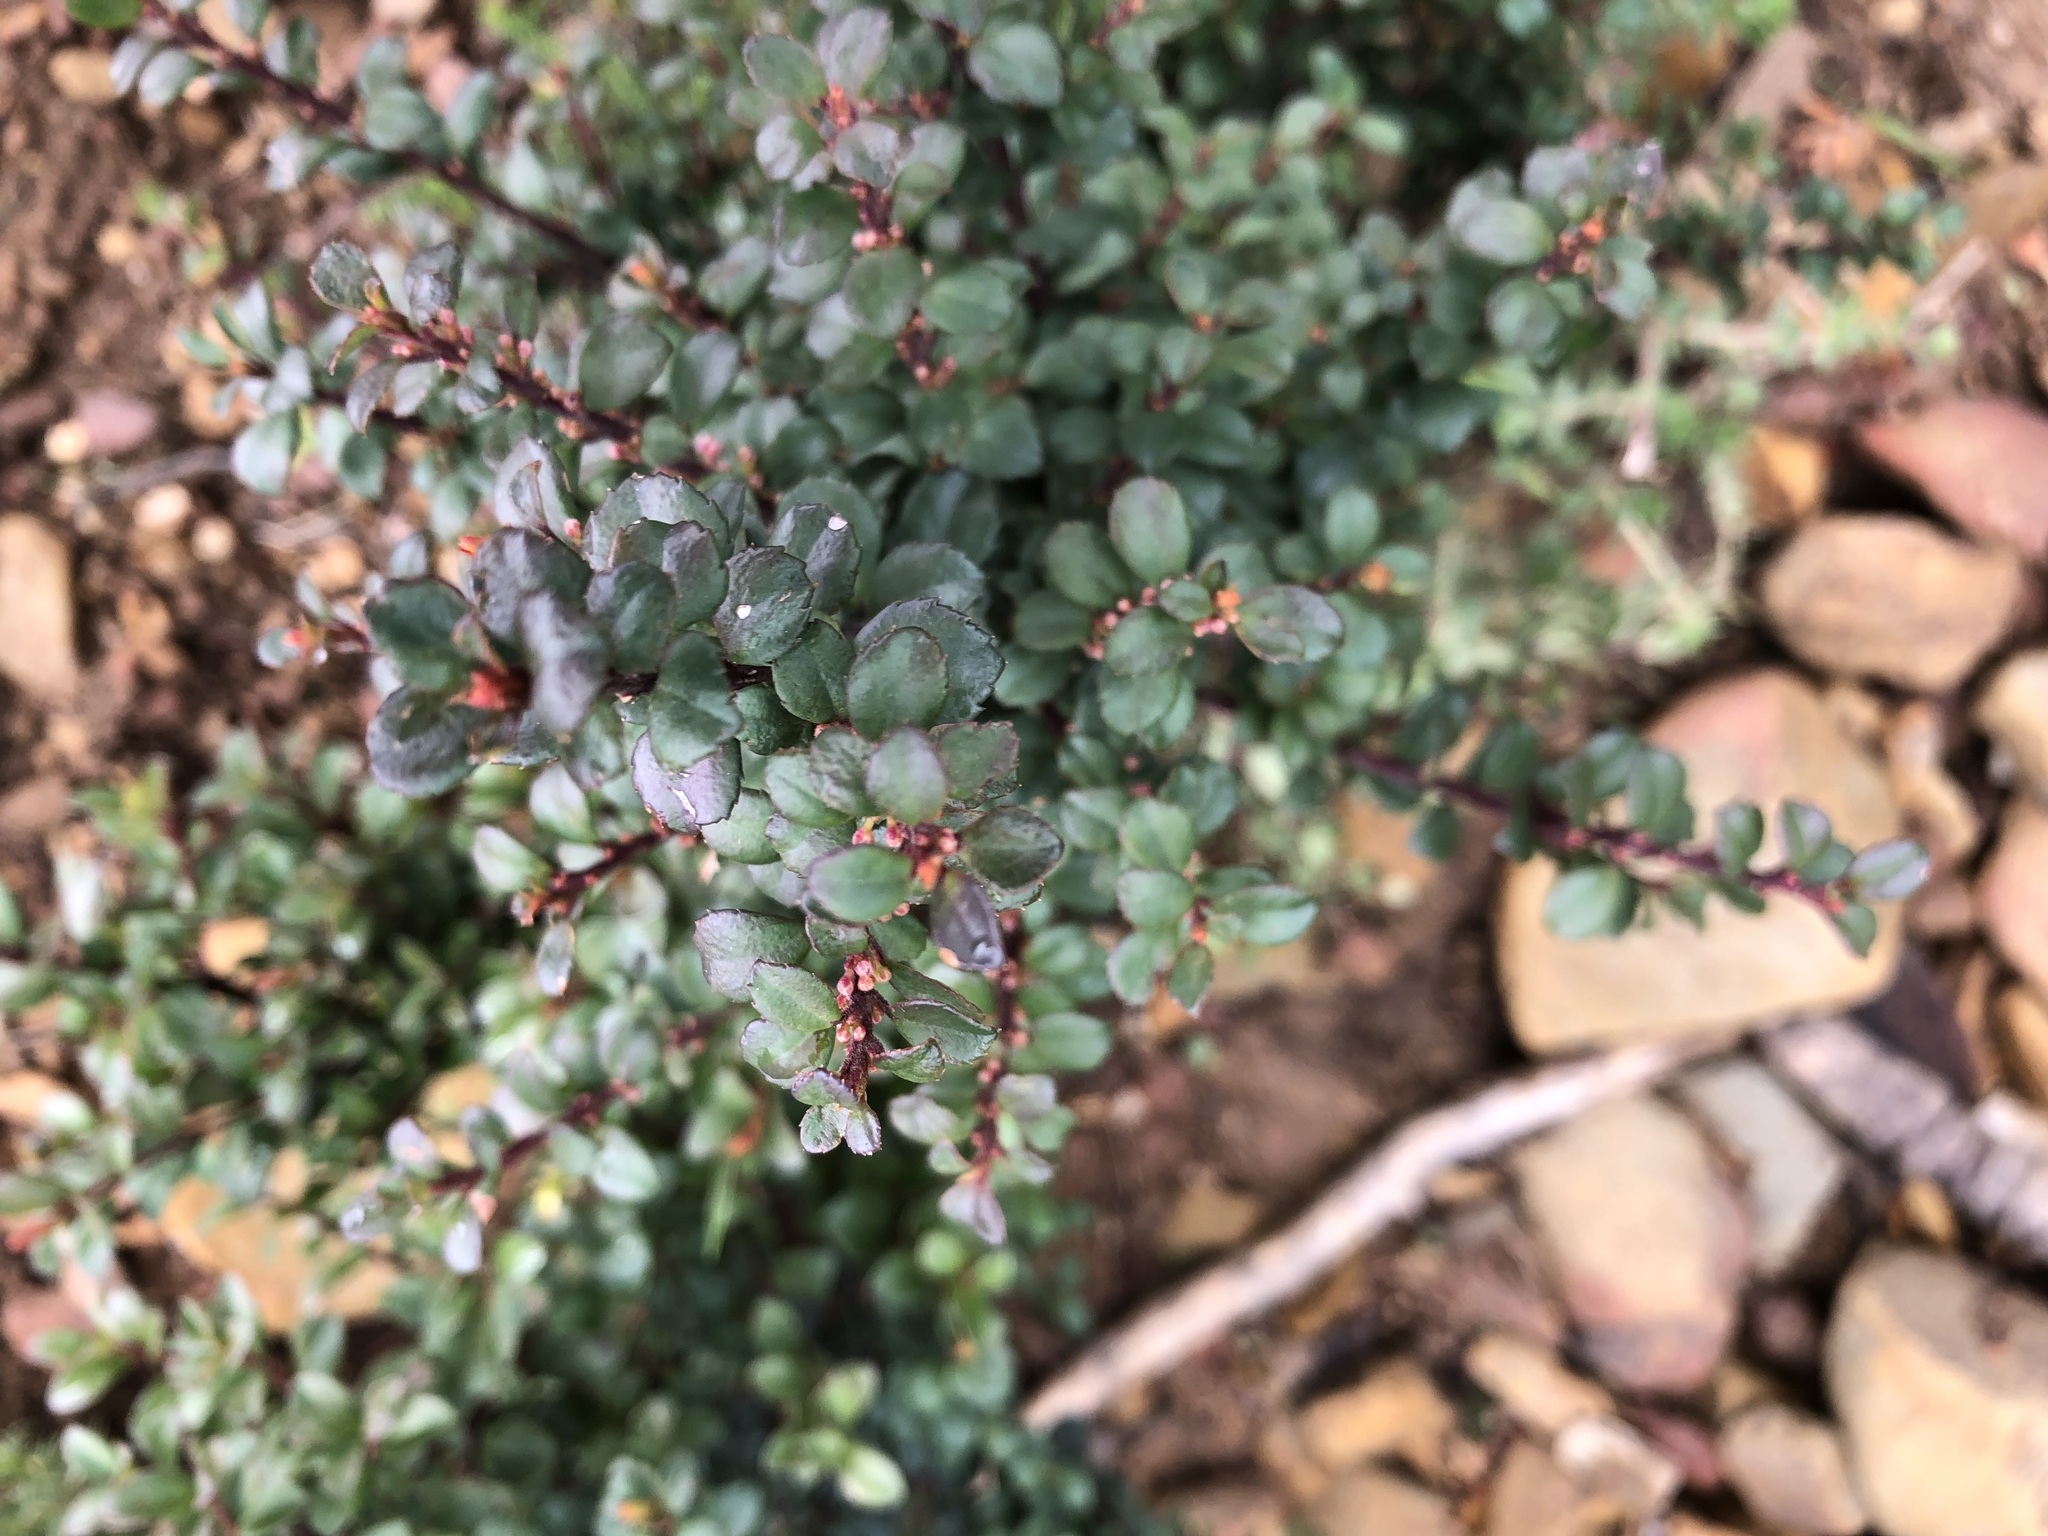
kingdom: Plantae
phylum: Tracheophyta
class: Magnoliopsida
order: Ericales
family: Primulaceae
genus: Myrsine
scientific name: Myrsine africana
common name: African-boxwood
